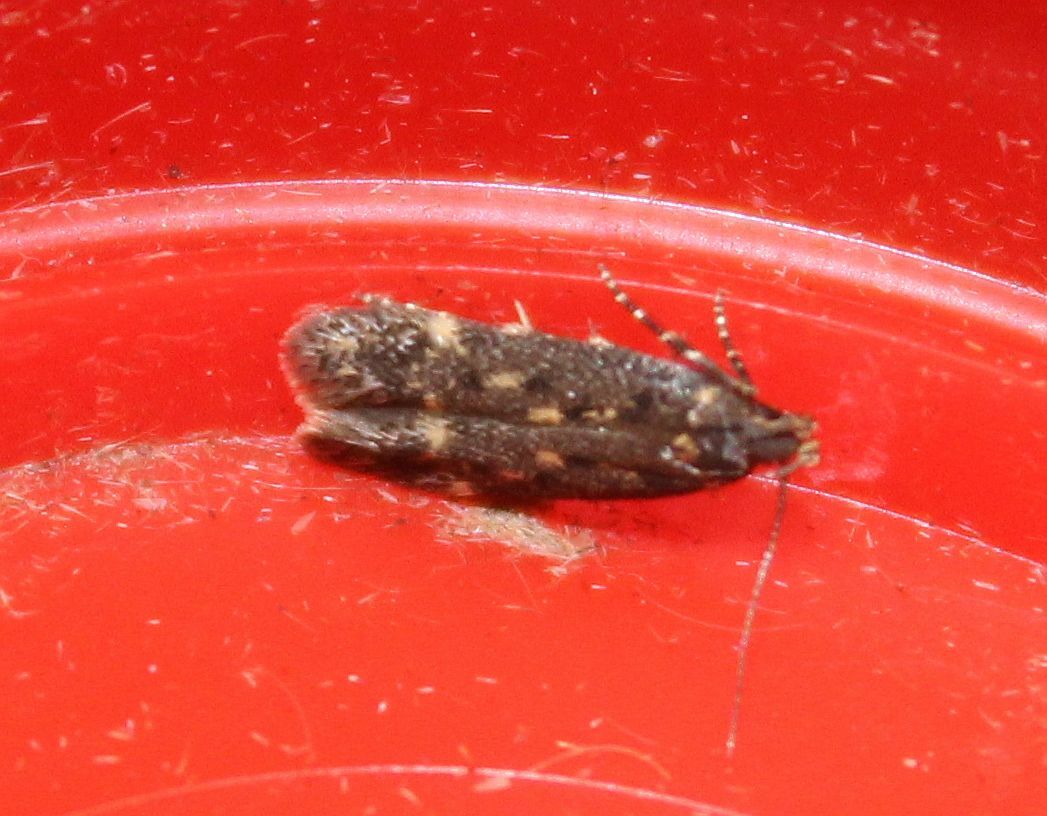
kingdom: Animalia
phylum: Arthropoda
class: Insecta
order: Lepidoptera
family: Gelechiidae
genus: Bryotropha
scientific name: Bryotropha affinis
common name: Dark groundling
